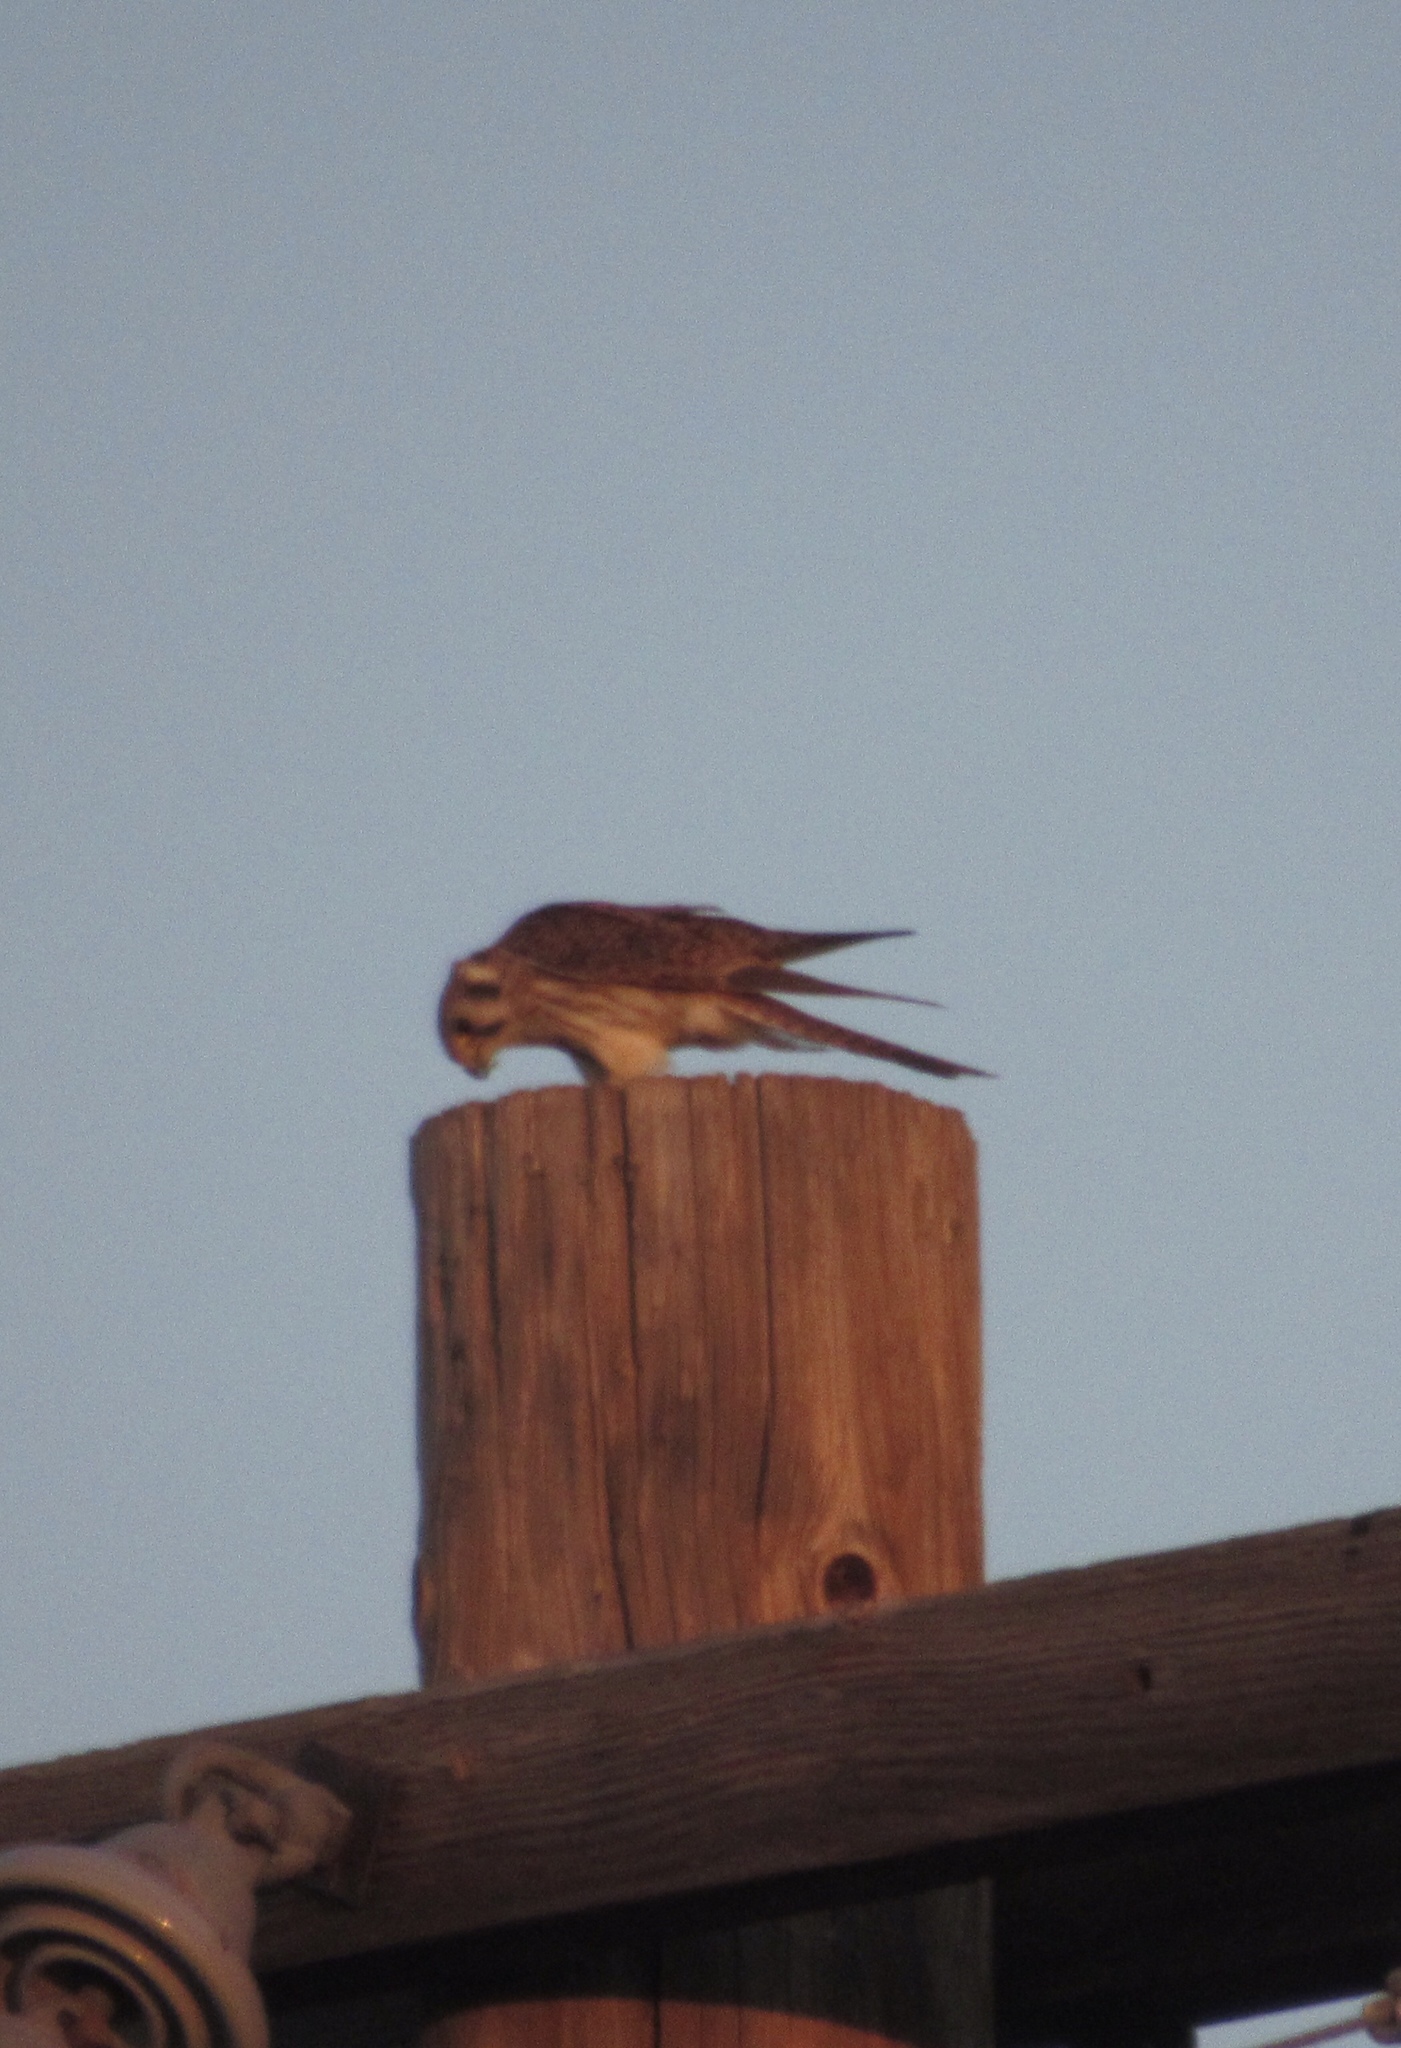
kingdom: Animalia
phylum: Chordata
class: Aves
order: Falconiformes
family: Falconidae
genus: Falco
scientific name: Falco sparverius
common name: American kestrel
